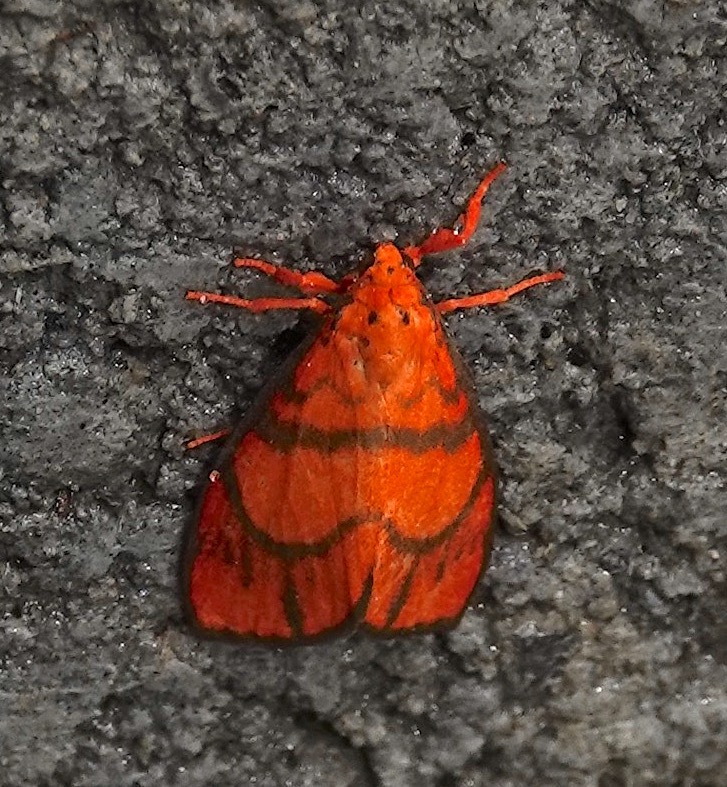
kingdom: Animalia
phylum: Arthropoda
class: Insecta
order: Lepidoptera
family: Erebidae
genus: Wittasura
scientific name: Wittasura lineatus
